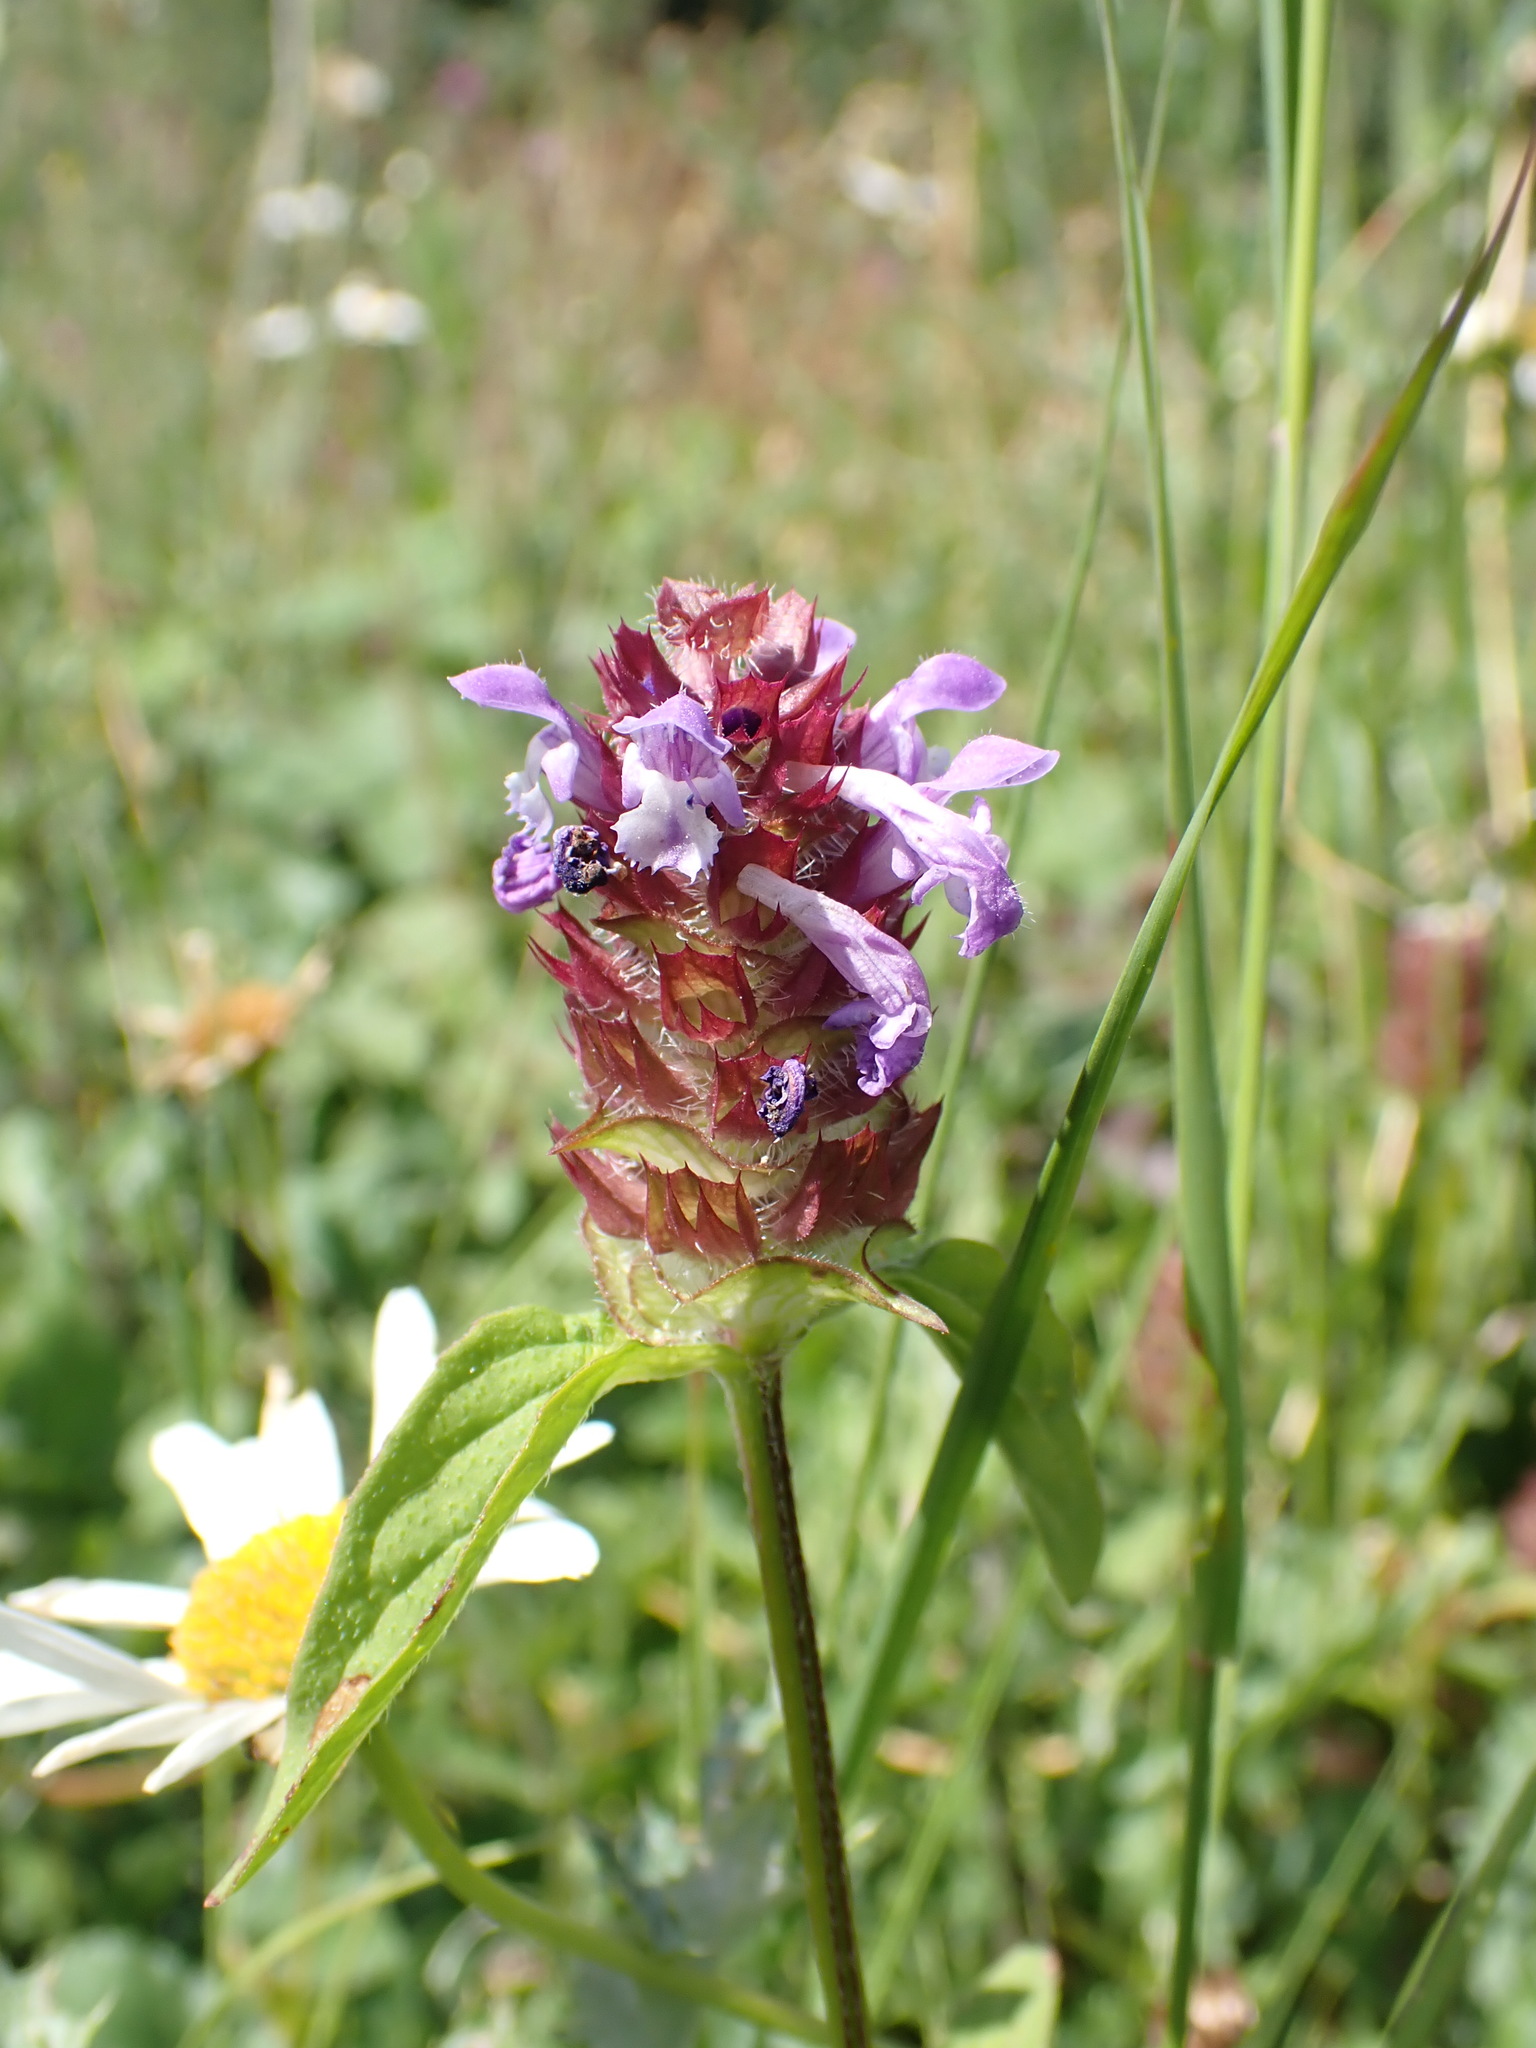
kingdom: Plantae
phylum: Tracheophyta
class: Magnoliopsida
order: Lamiales
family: Lamiaceae
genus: Prunella
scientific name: Prunella vulgaris
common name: Heal-all
